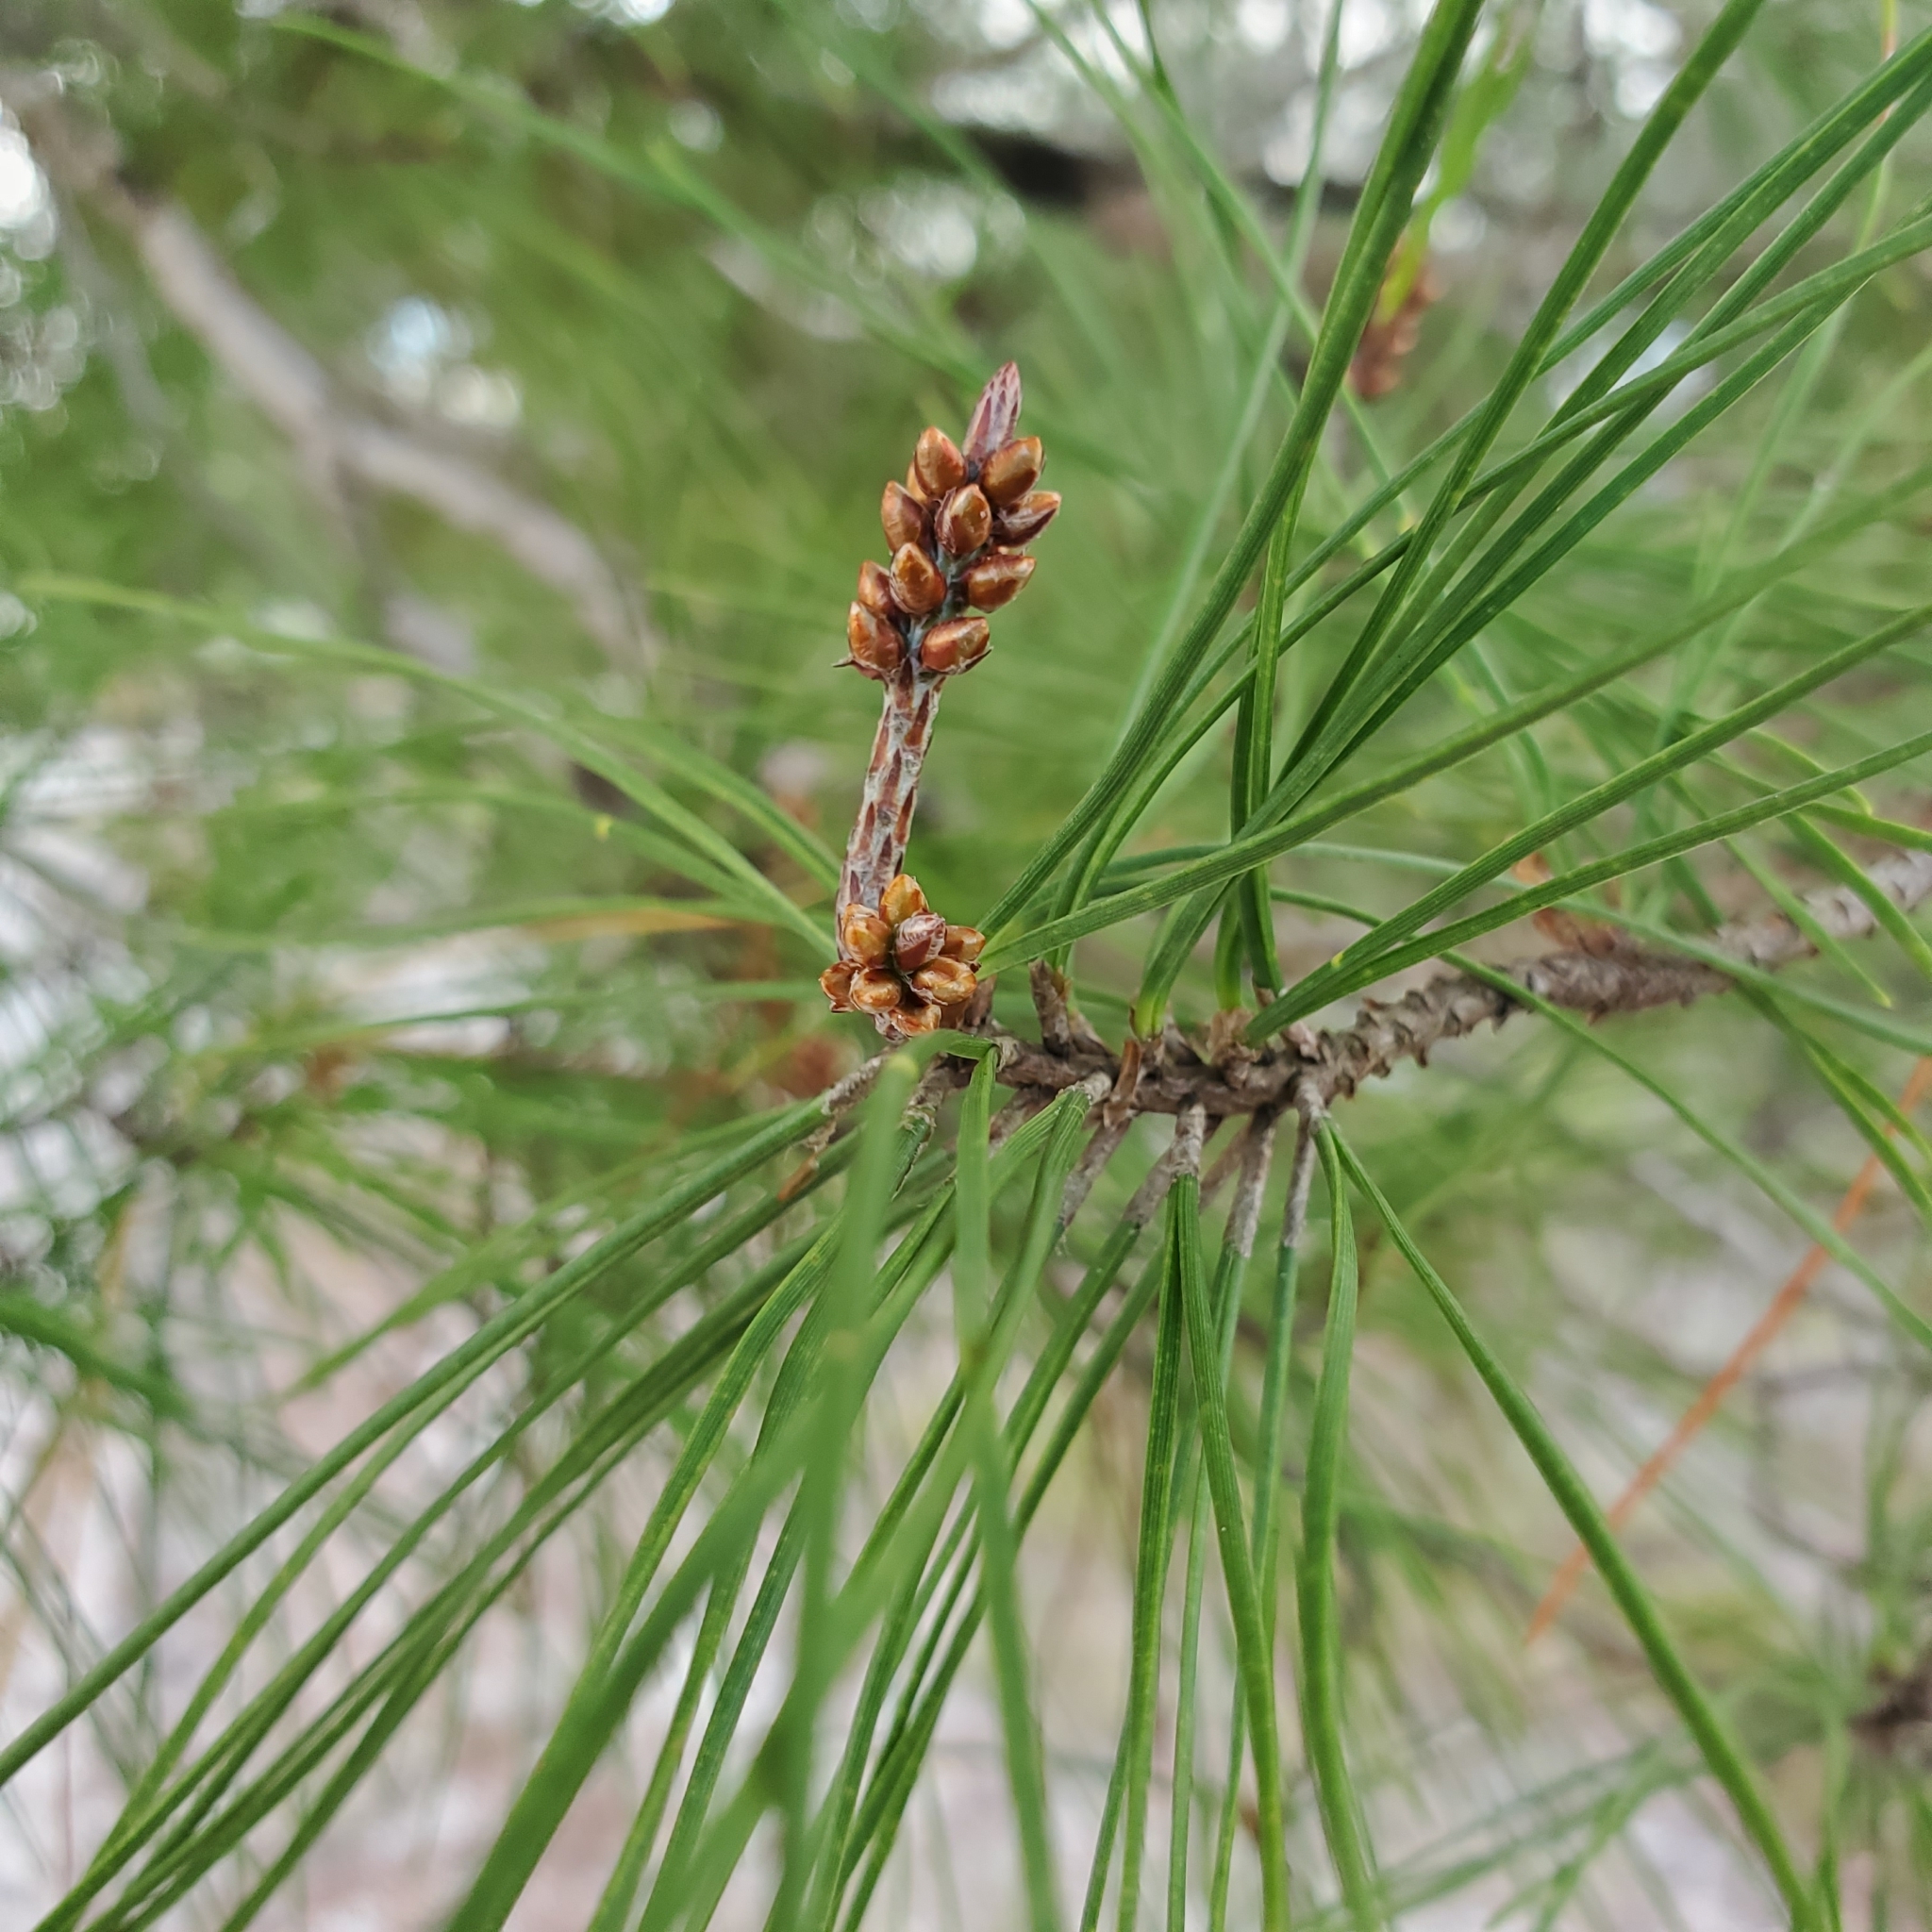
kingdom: Plantae
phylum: Tracheophyta
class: Pinopsida
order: Pinales
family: Pinaceae
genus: Pinus
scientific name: Pinus clausa
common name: Sand pine
